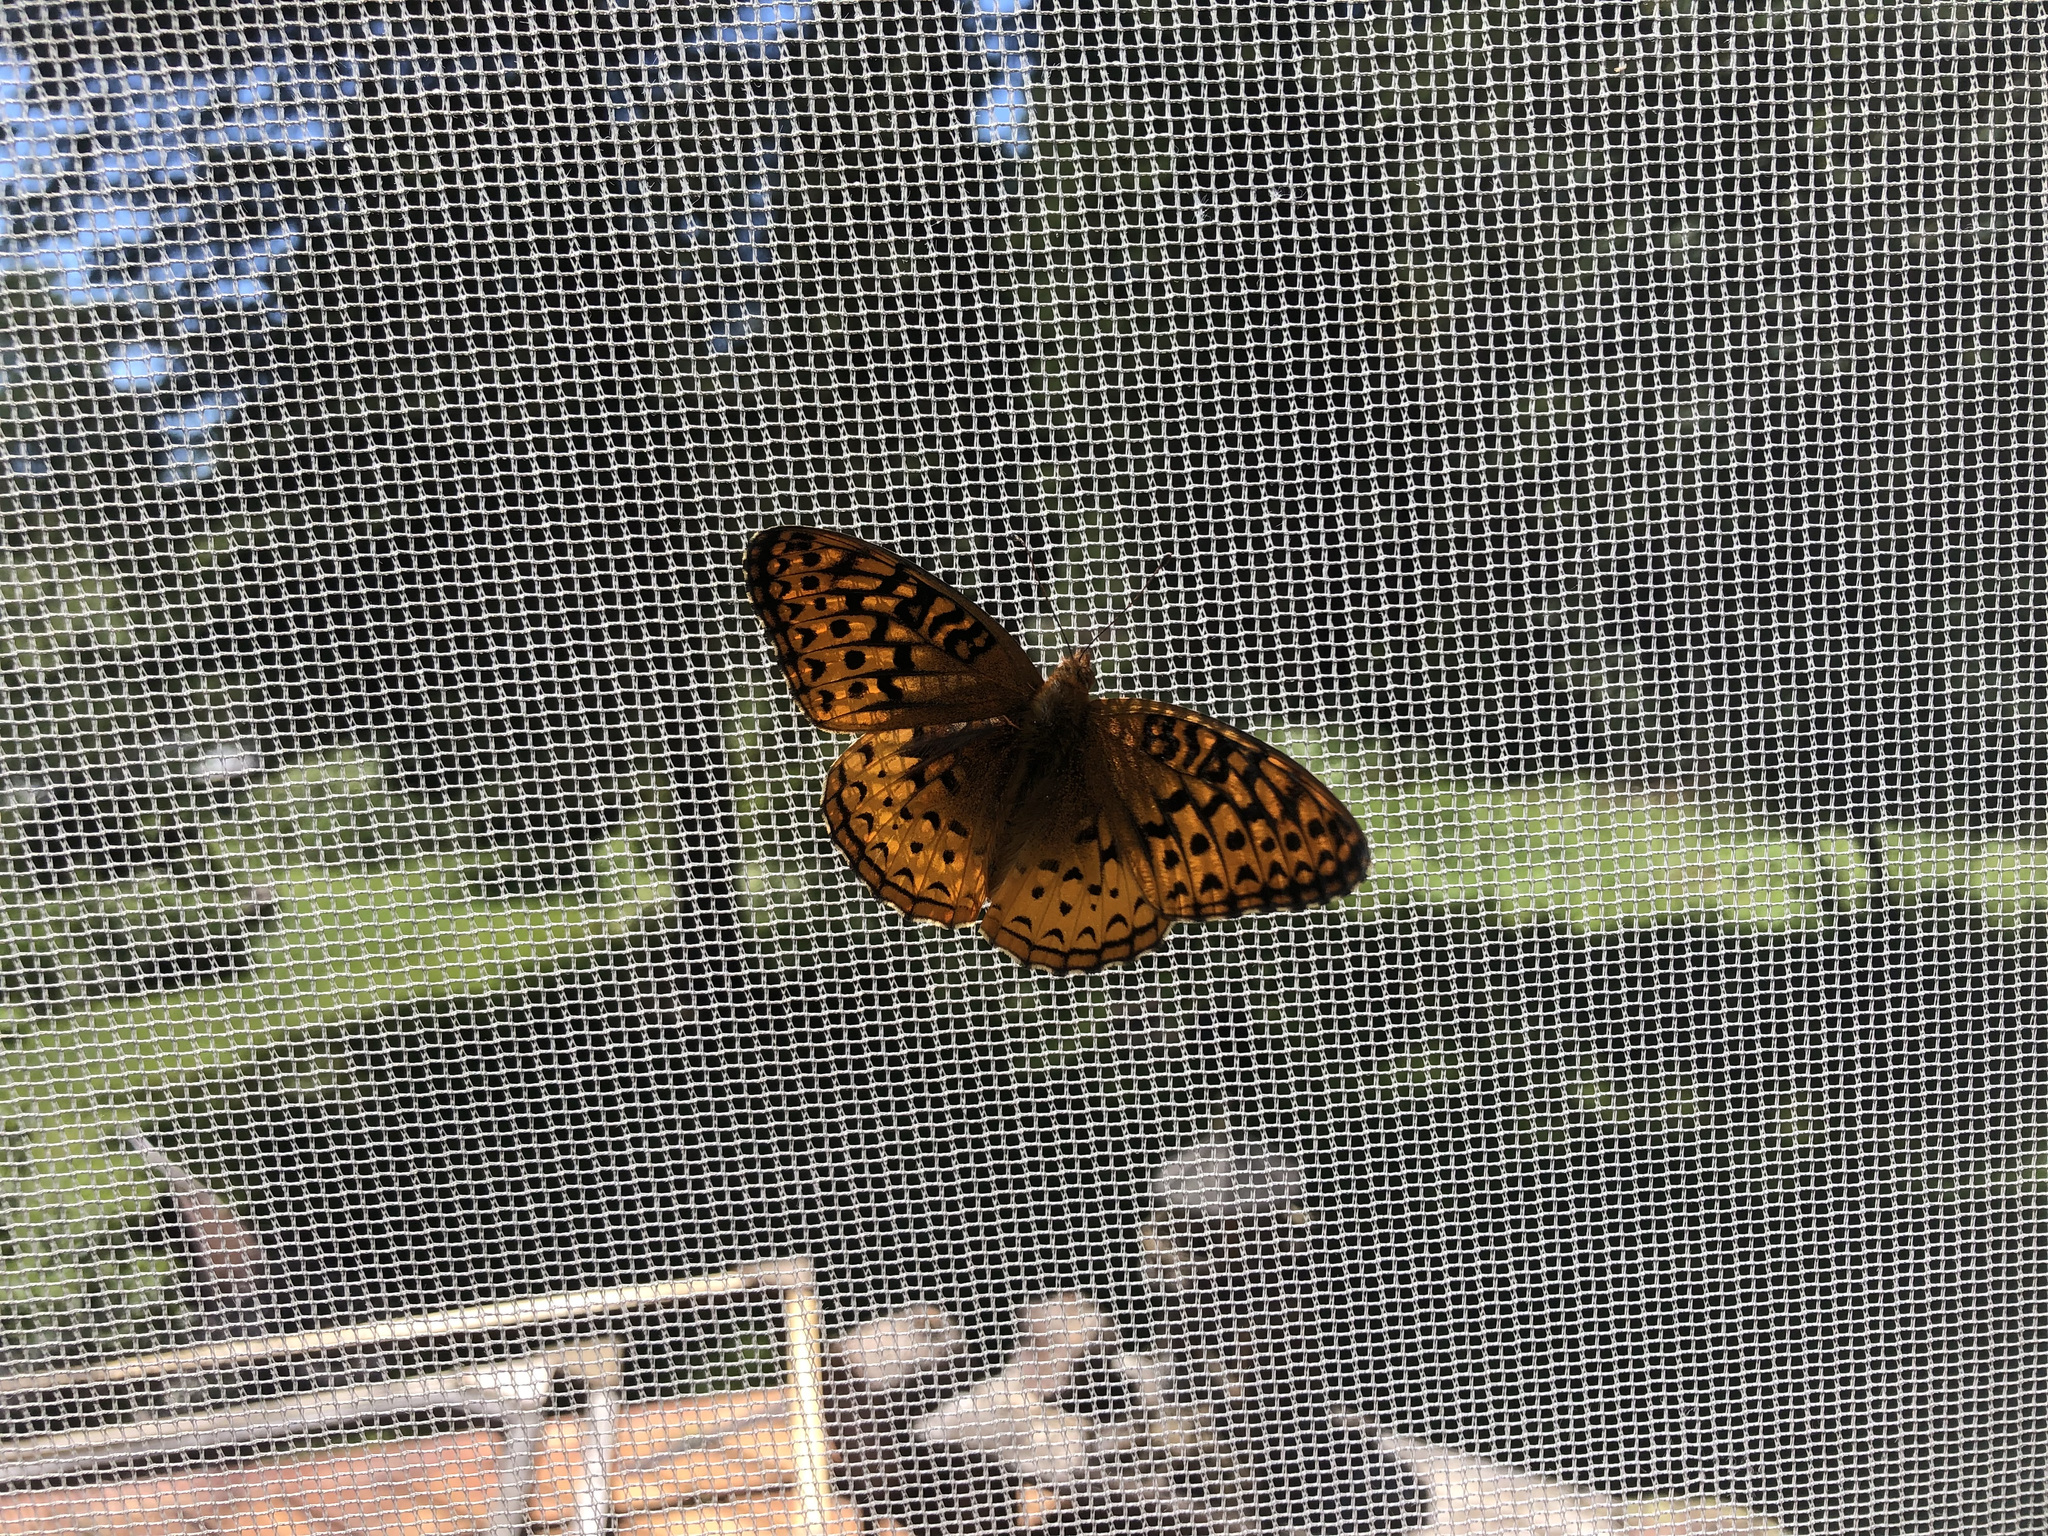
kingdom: Animalia
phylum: Arthropoda
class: Insecta
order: Lepidoptera
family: Nymphalidae
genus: Speyeria
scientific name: Speyeria cybele
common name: Great spangled fritillary
